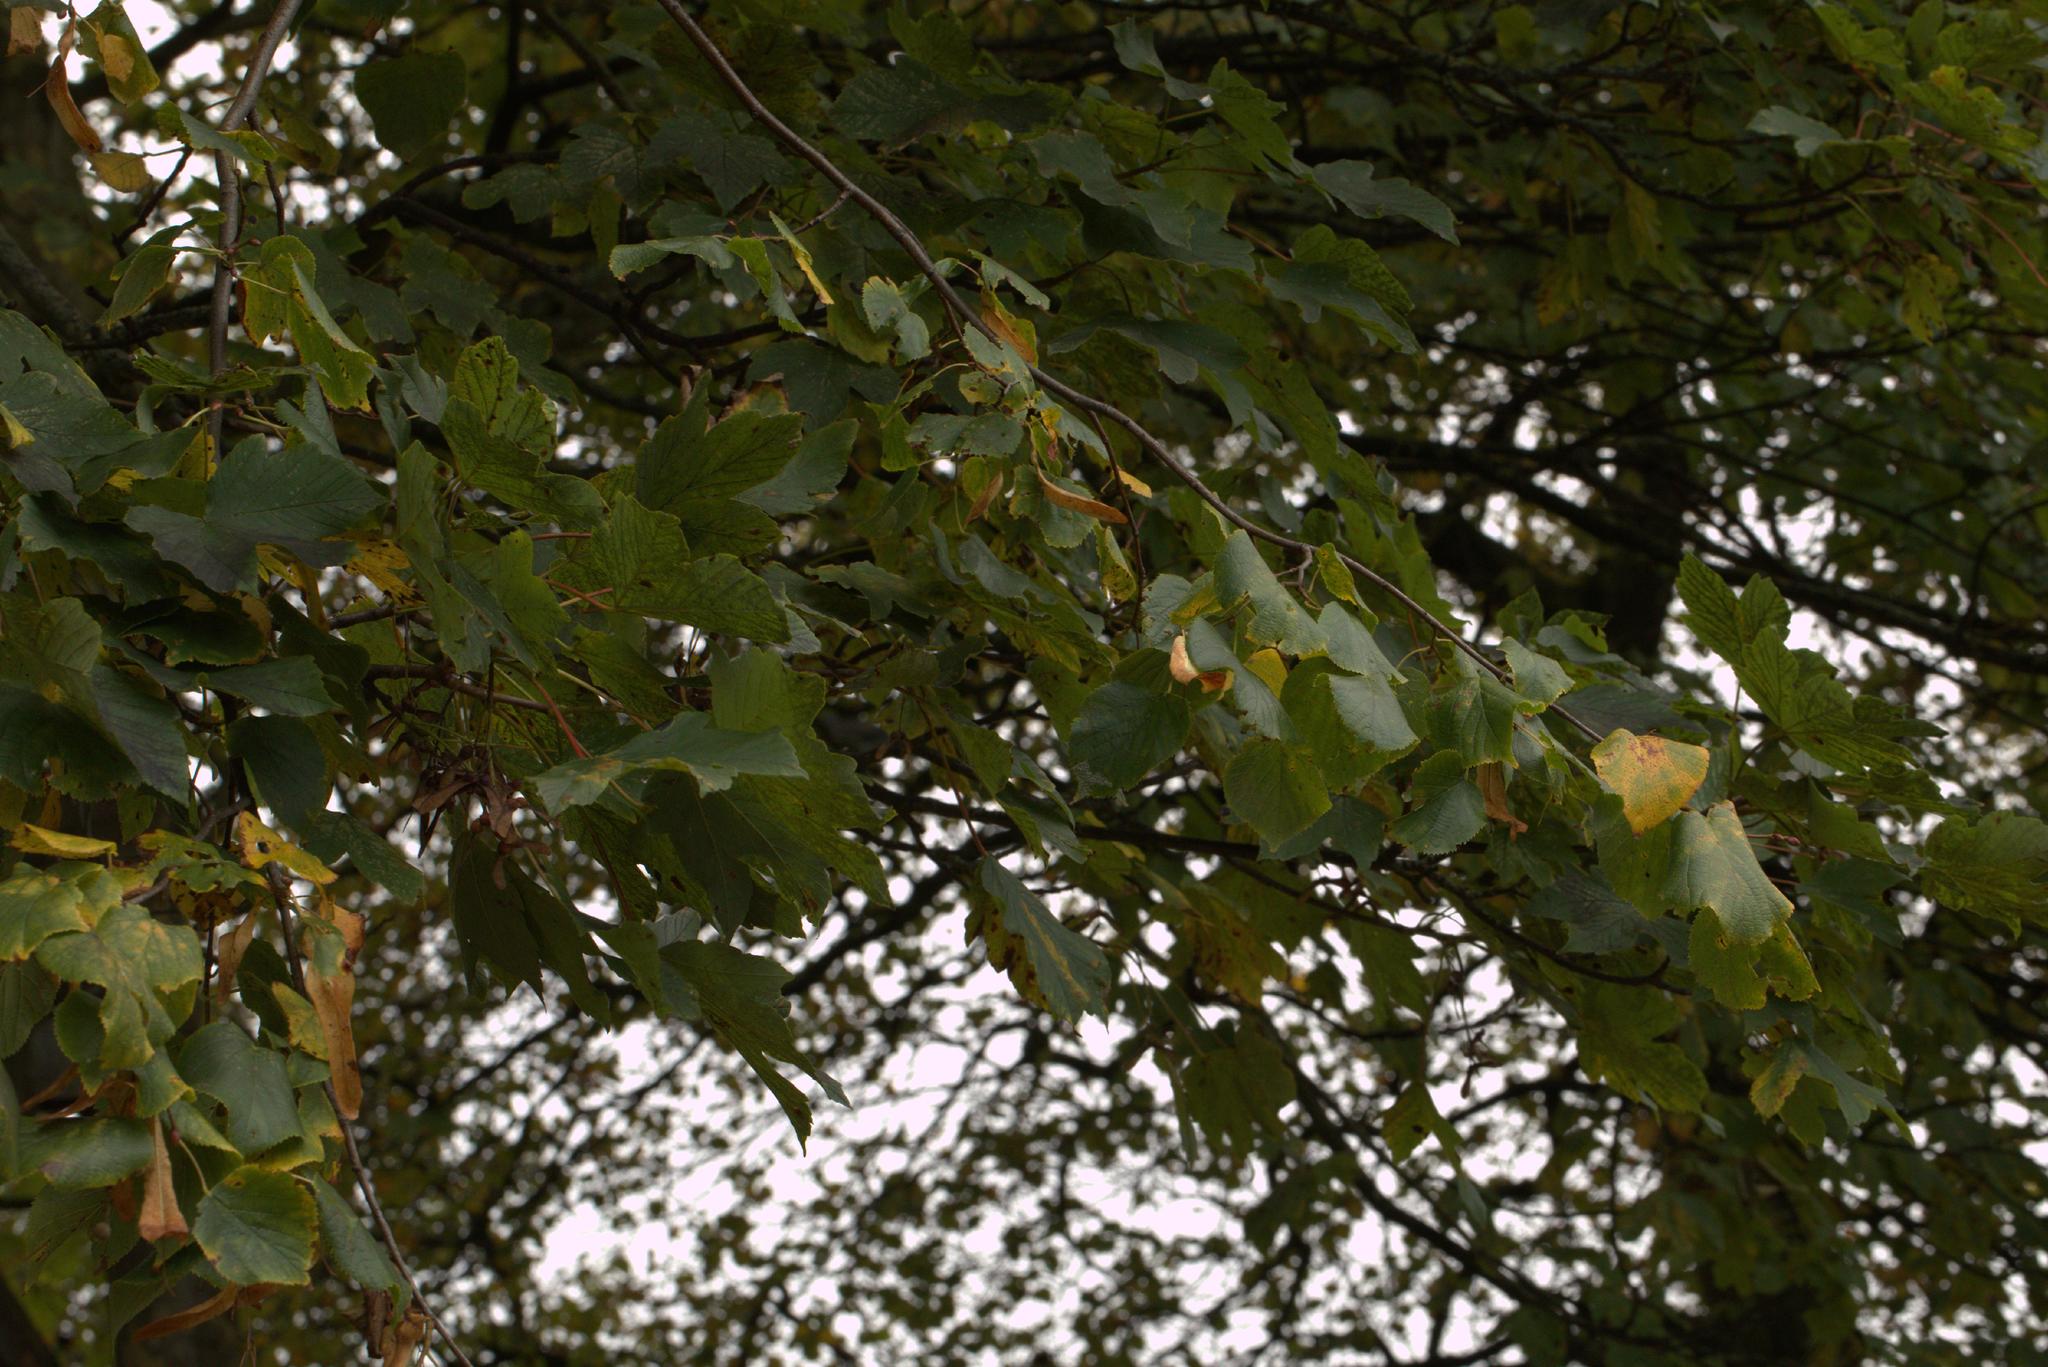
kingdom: Plantae
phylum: Tracheophyta
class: Magnoliopsida
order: Malvales
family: Malvaceae
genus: Tilia
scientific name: Tilia europaea
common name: European linden
